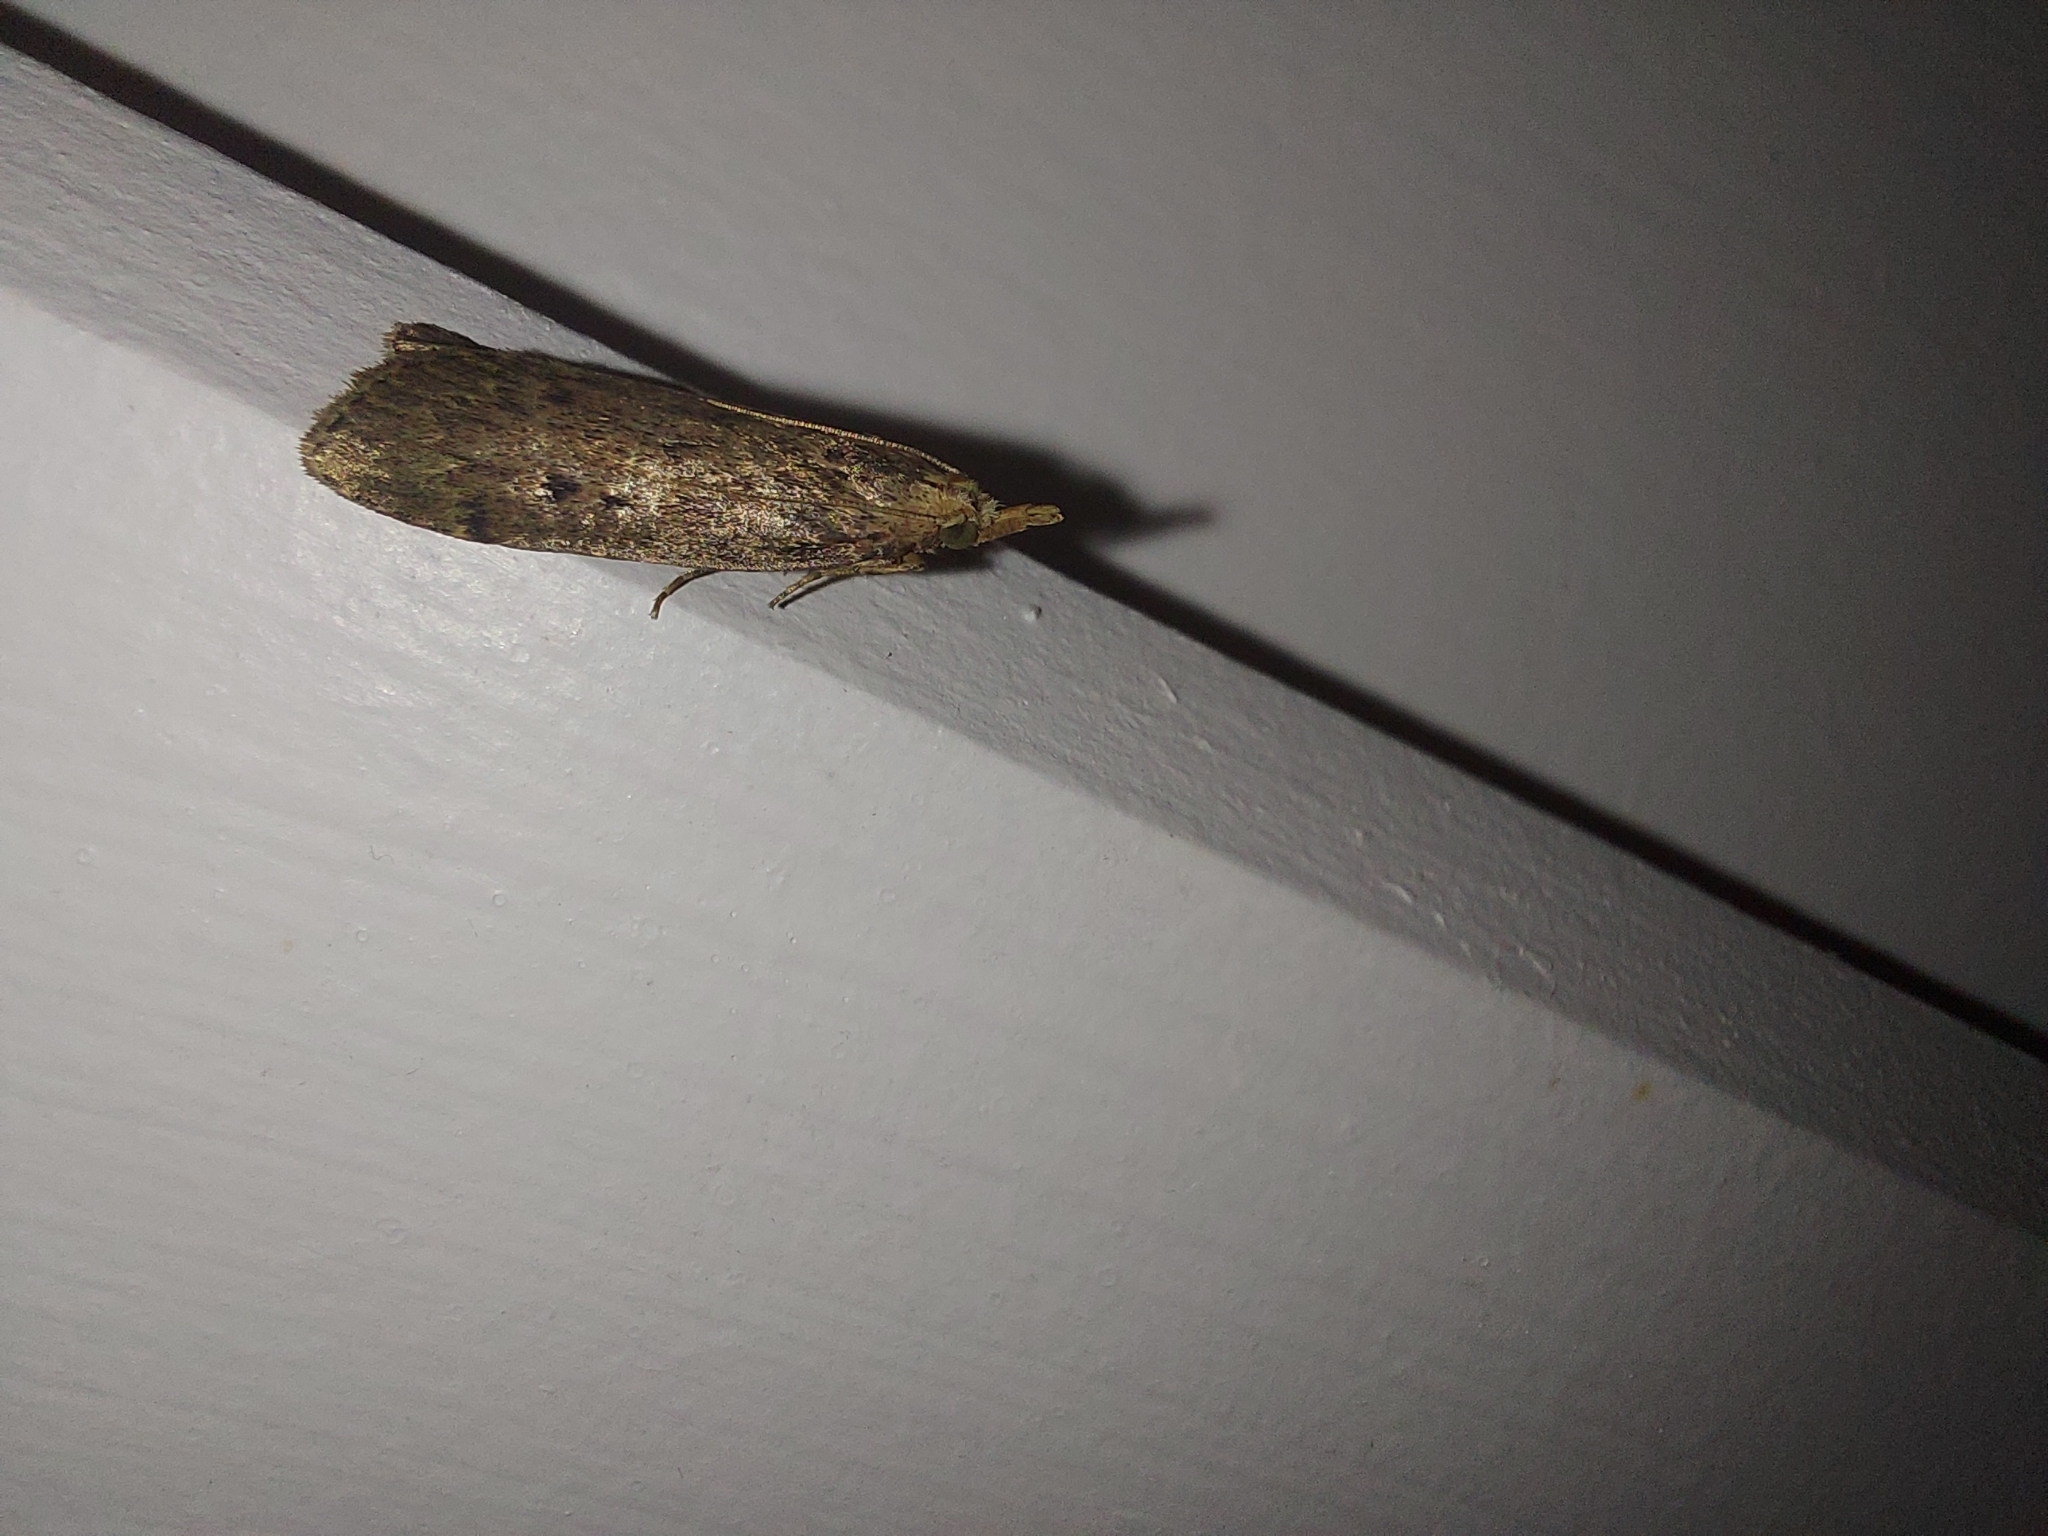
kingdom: Animalia
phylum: Arthropoda
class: Insecta
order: Lepidoptera
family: Pyralidae
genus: Aphomia
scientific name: Aphomia sociella
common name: Bee moth
